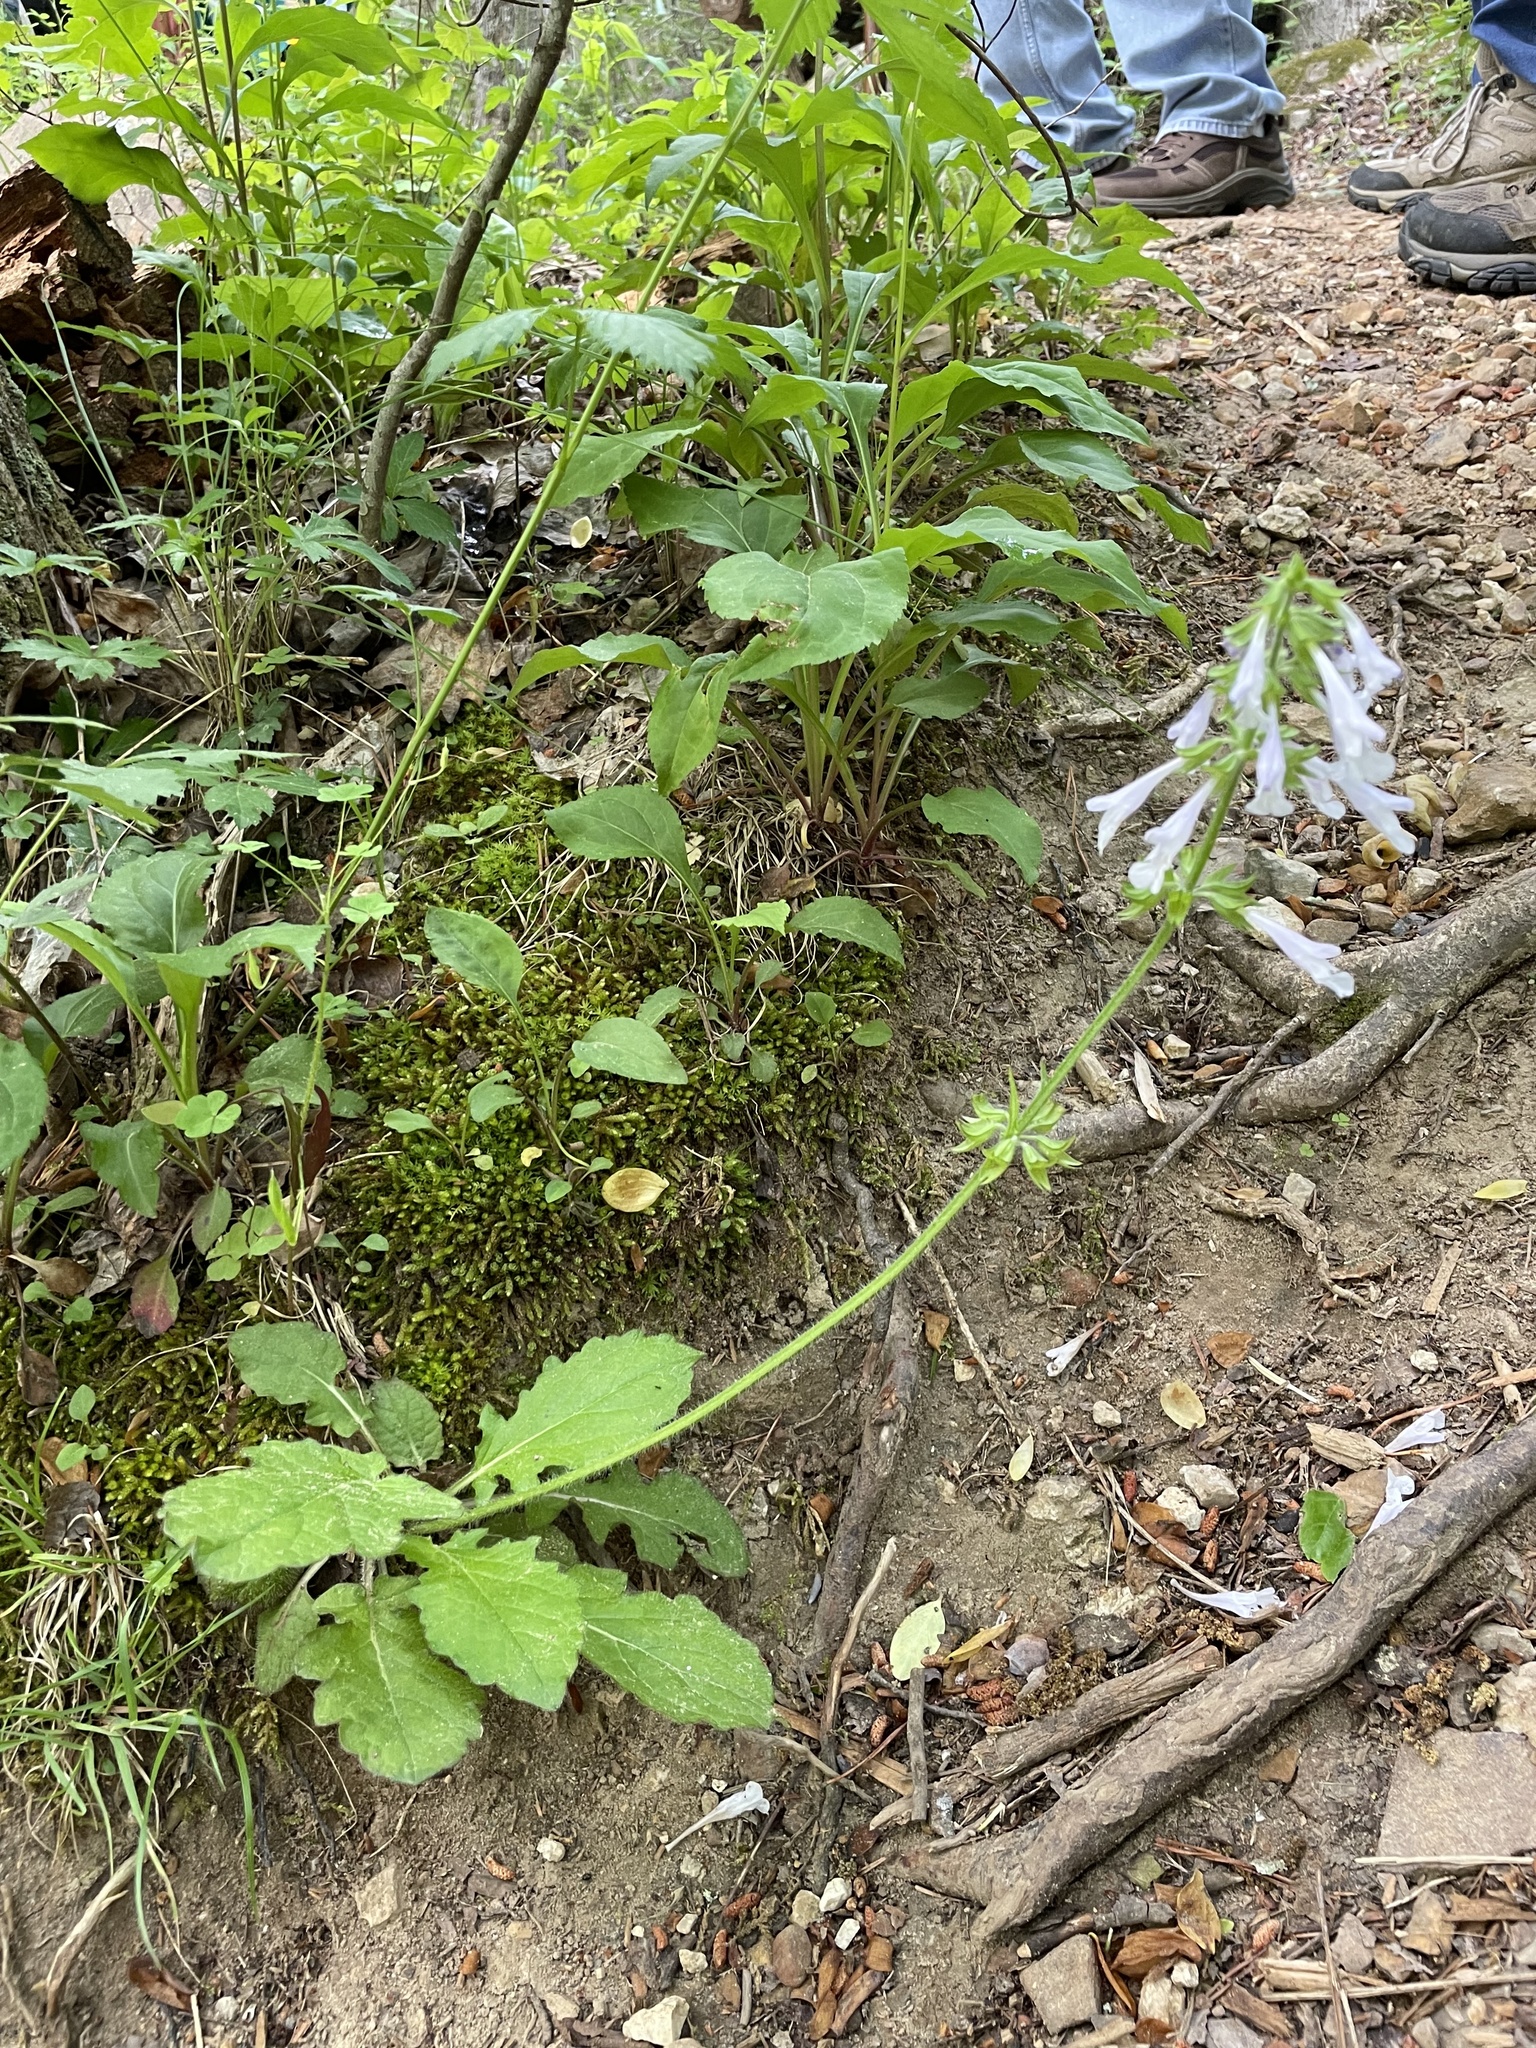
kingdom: Plantae
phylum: Tracheophyta
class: Magnoliopsida
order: Lamiales
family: Lamiaceae
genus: Salvia
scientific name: Salvia lyrata
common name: Cancerweed
